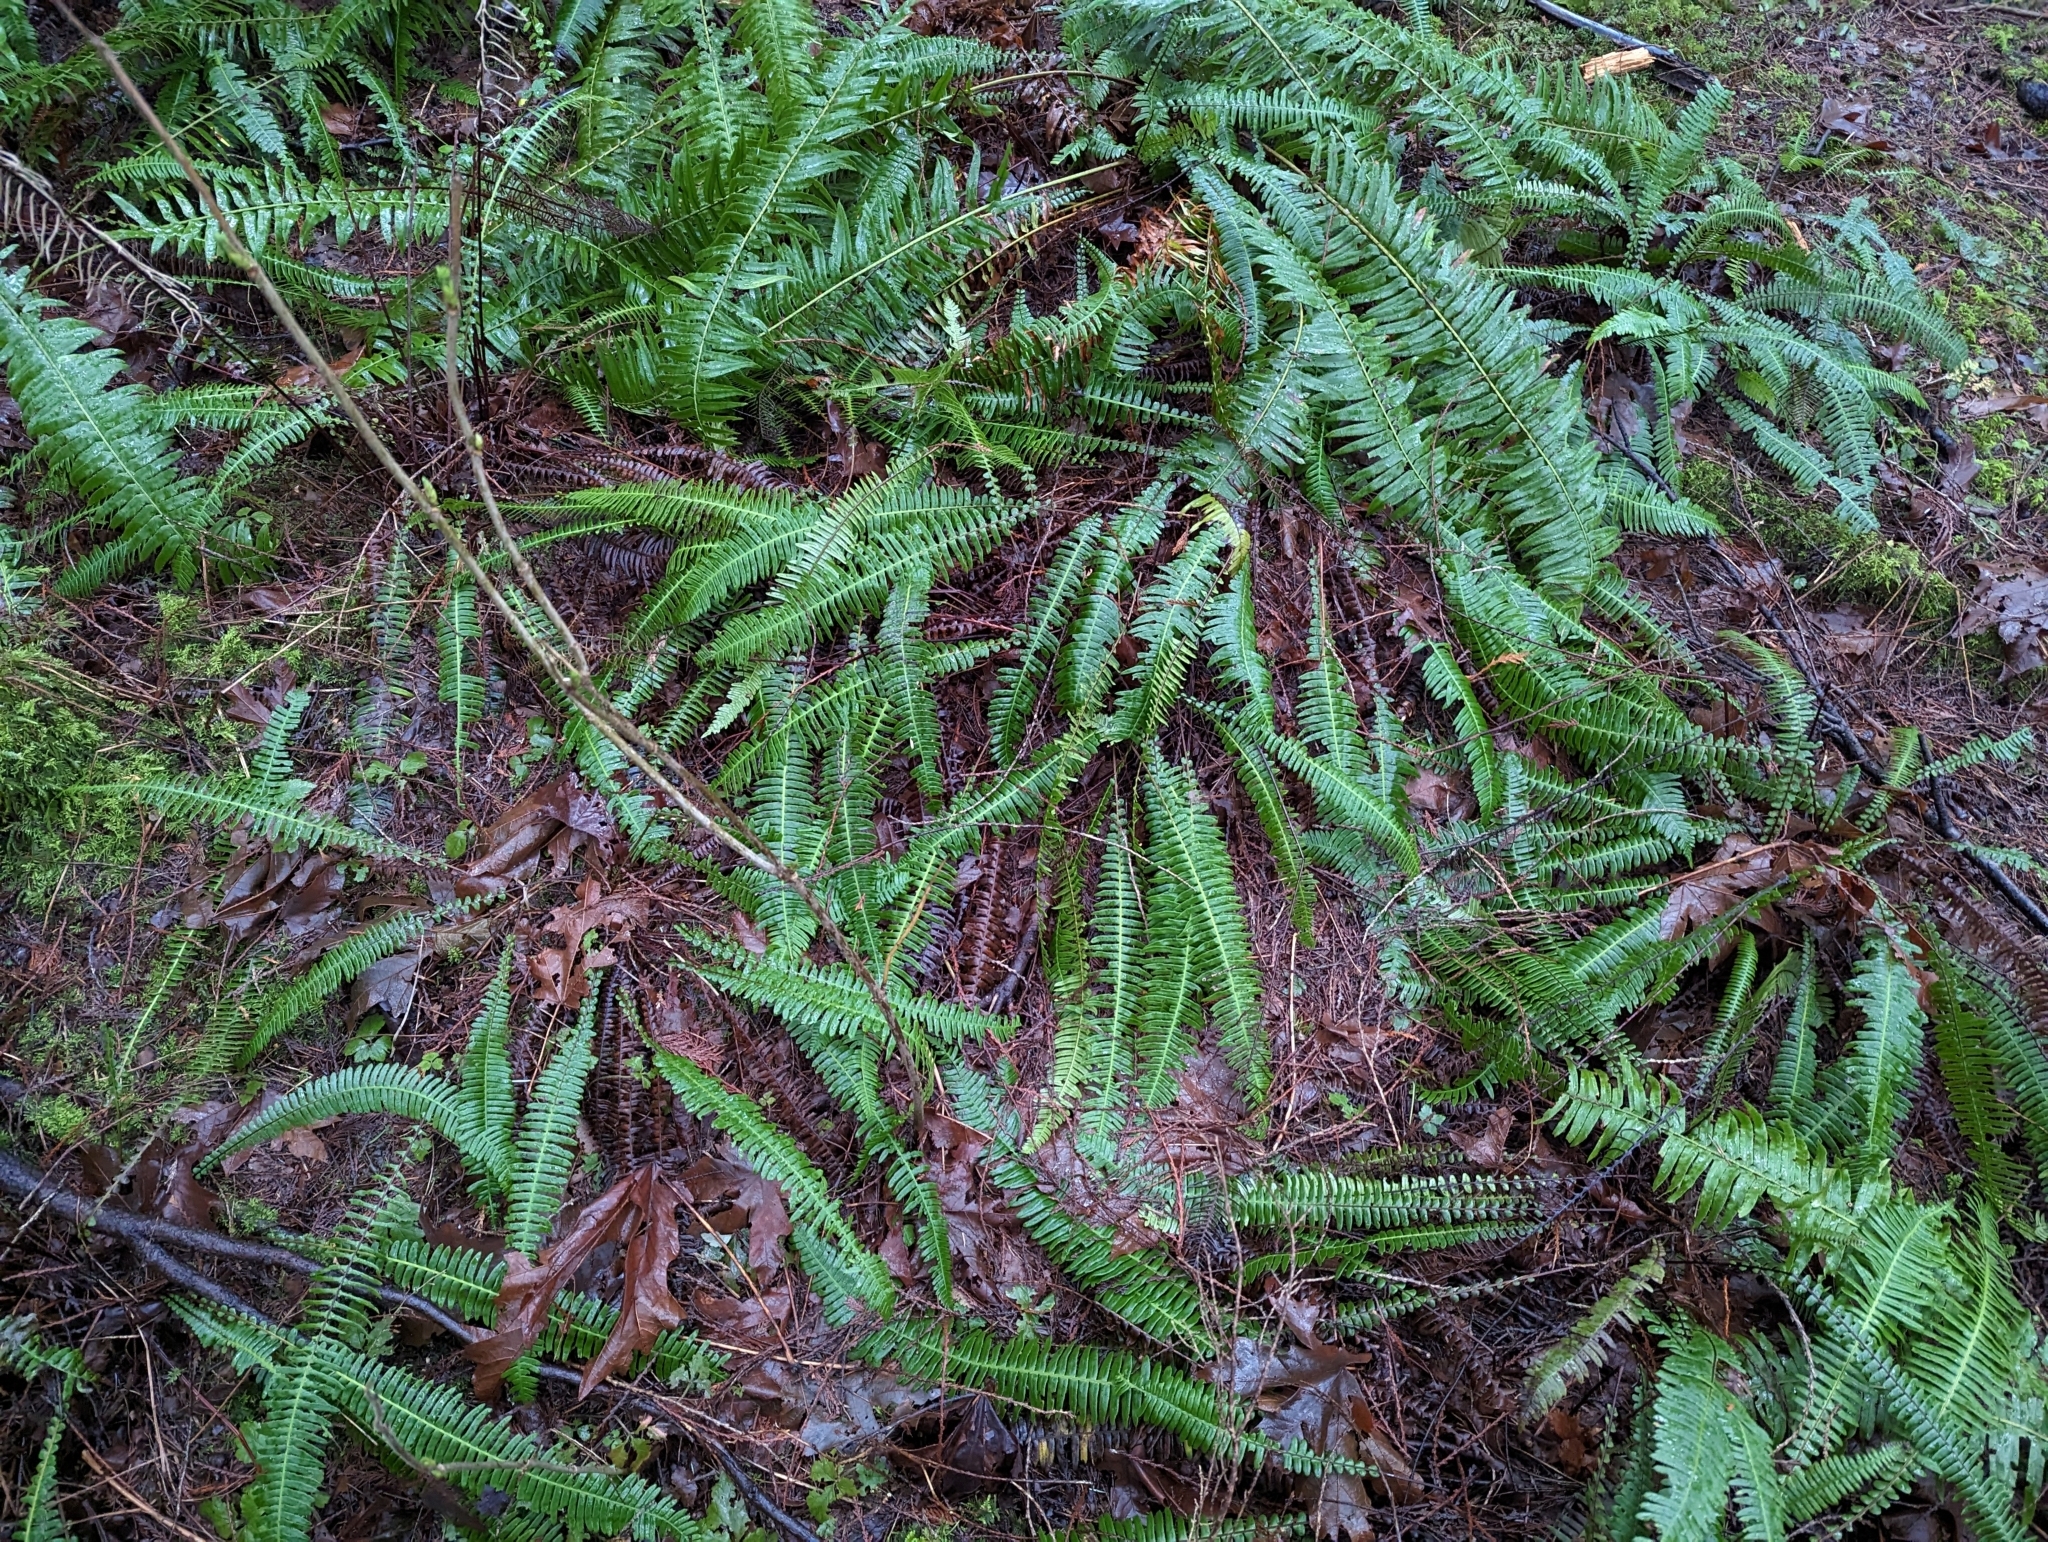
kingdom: Plantae
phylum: Tracheophyta
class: Polypodiopsida
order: Polypodiales
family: Blechnaceae
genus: Struthiopteris
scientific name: Struthiopteris spicant
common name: Deer fern
